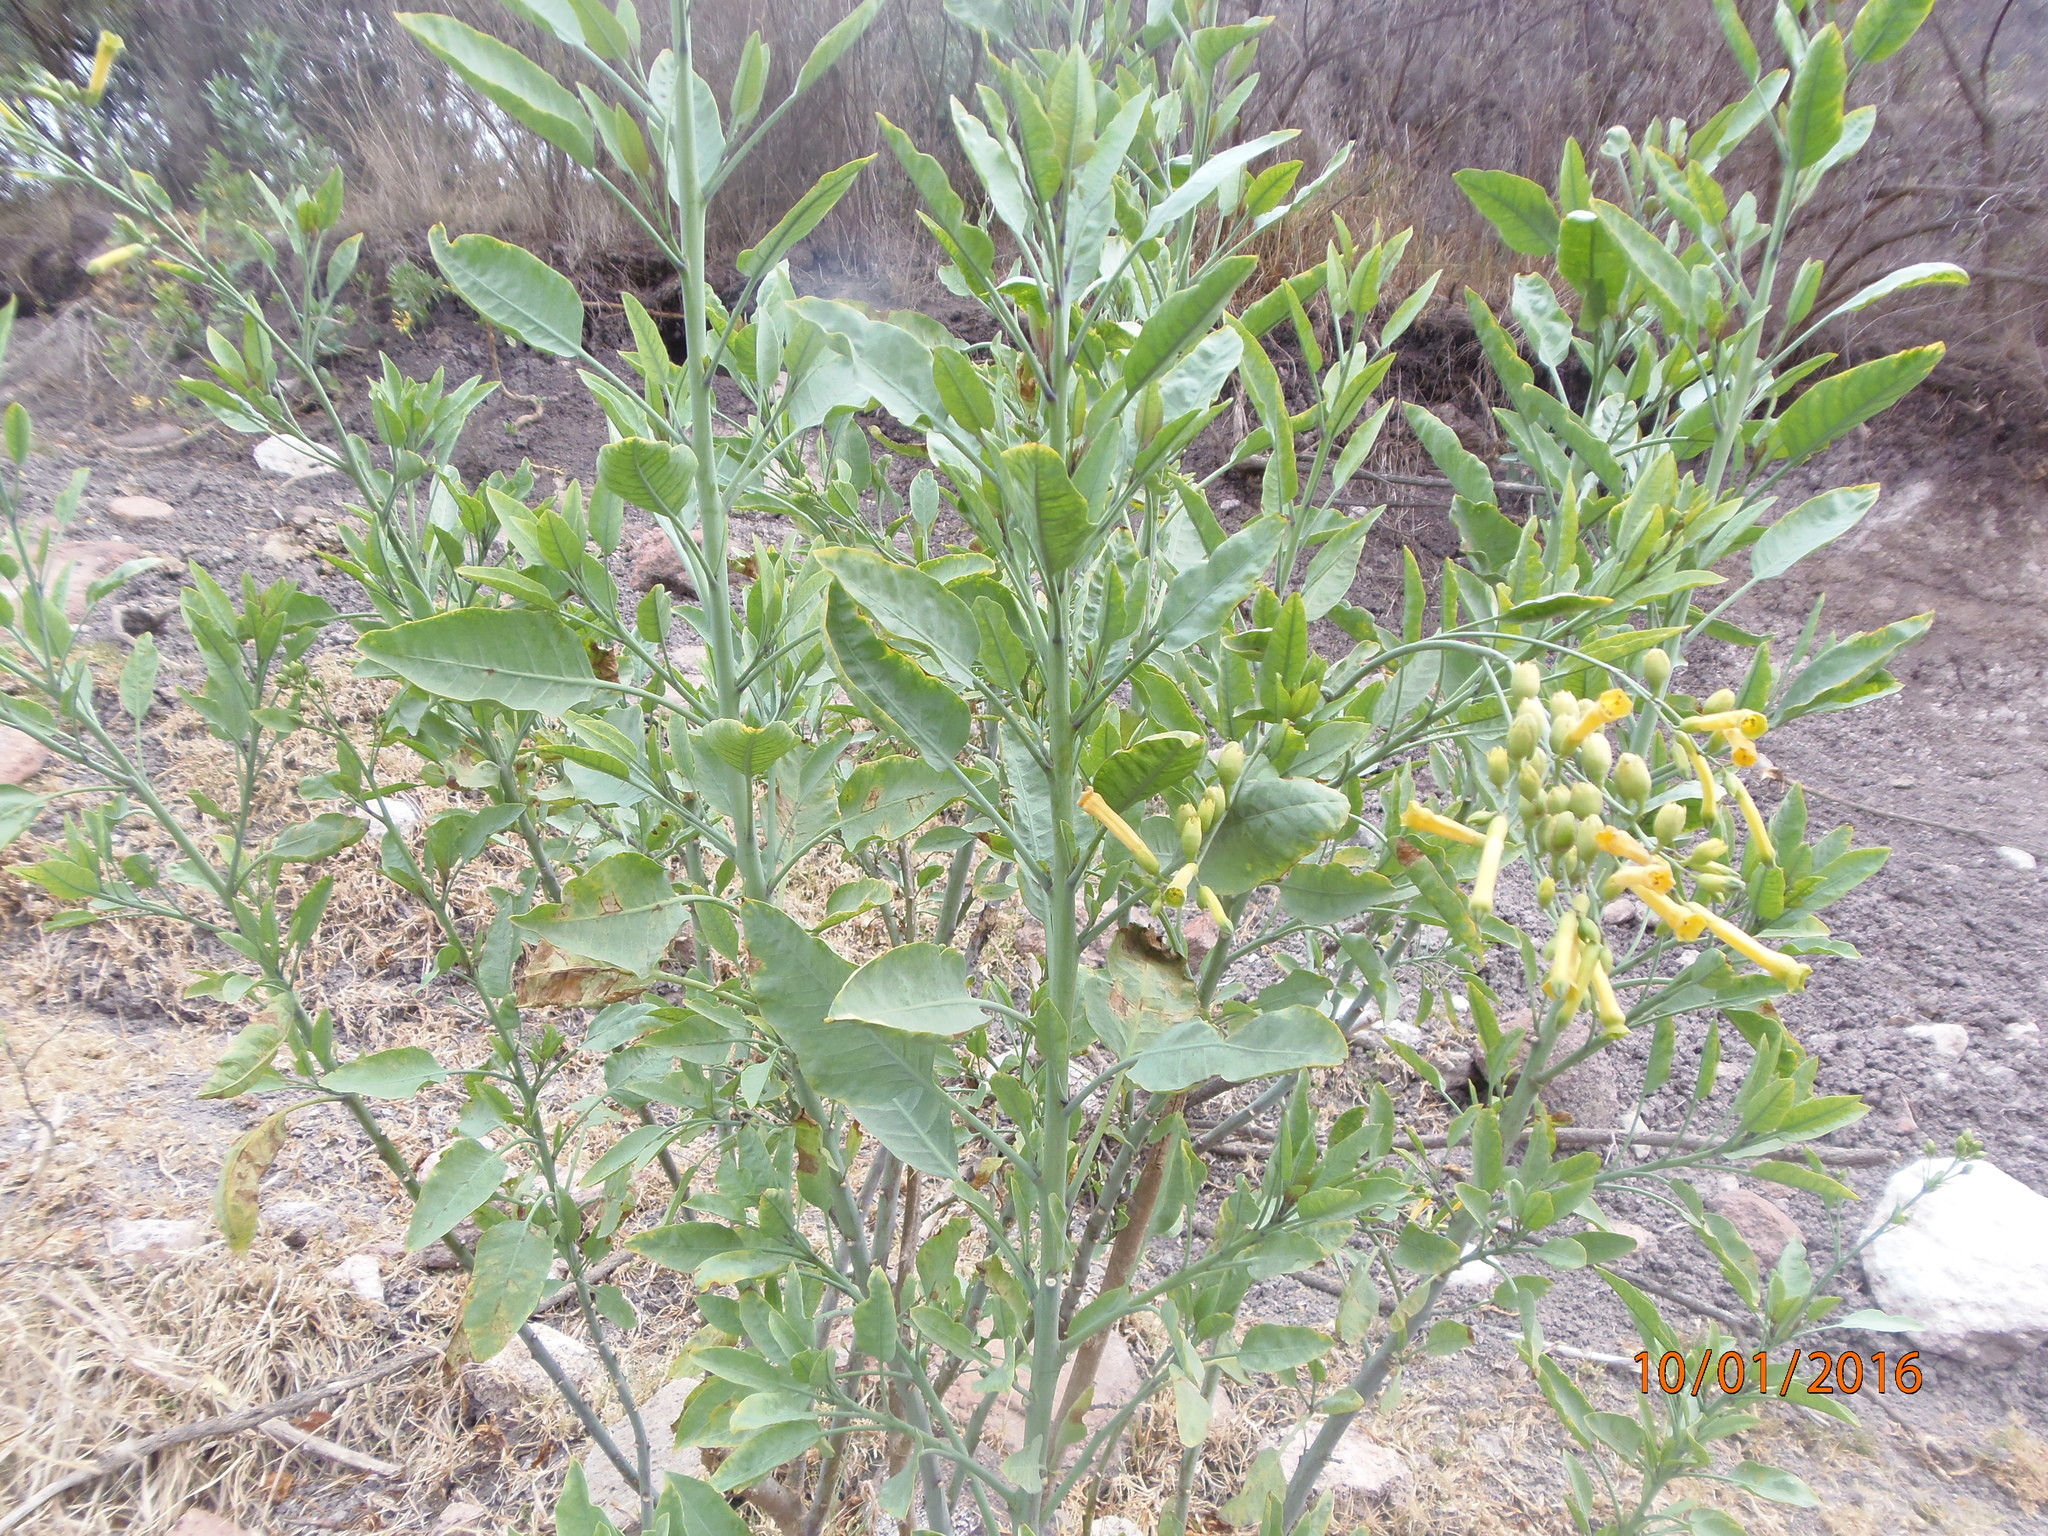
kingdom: Plantae
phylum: Tracheophyta
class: Magnoliopsida
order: Solanales
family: Solanaceae
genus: Nicotiana
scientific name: Nicotiana glauca
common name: Tree tobacco
